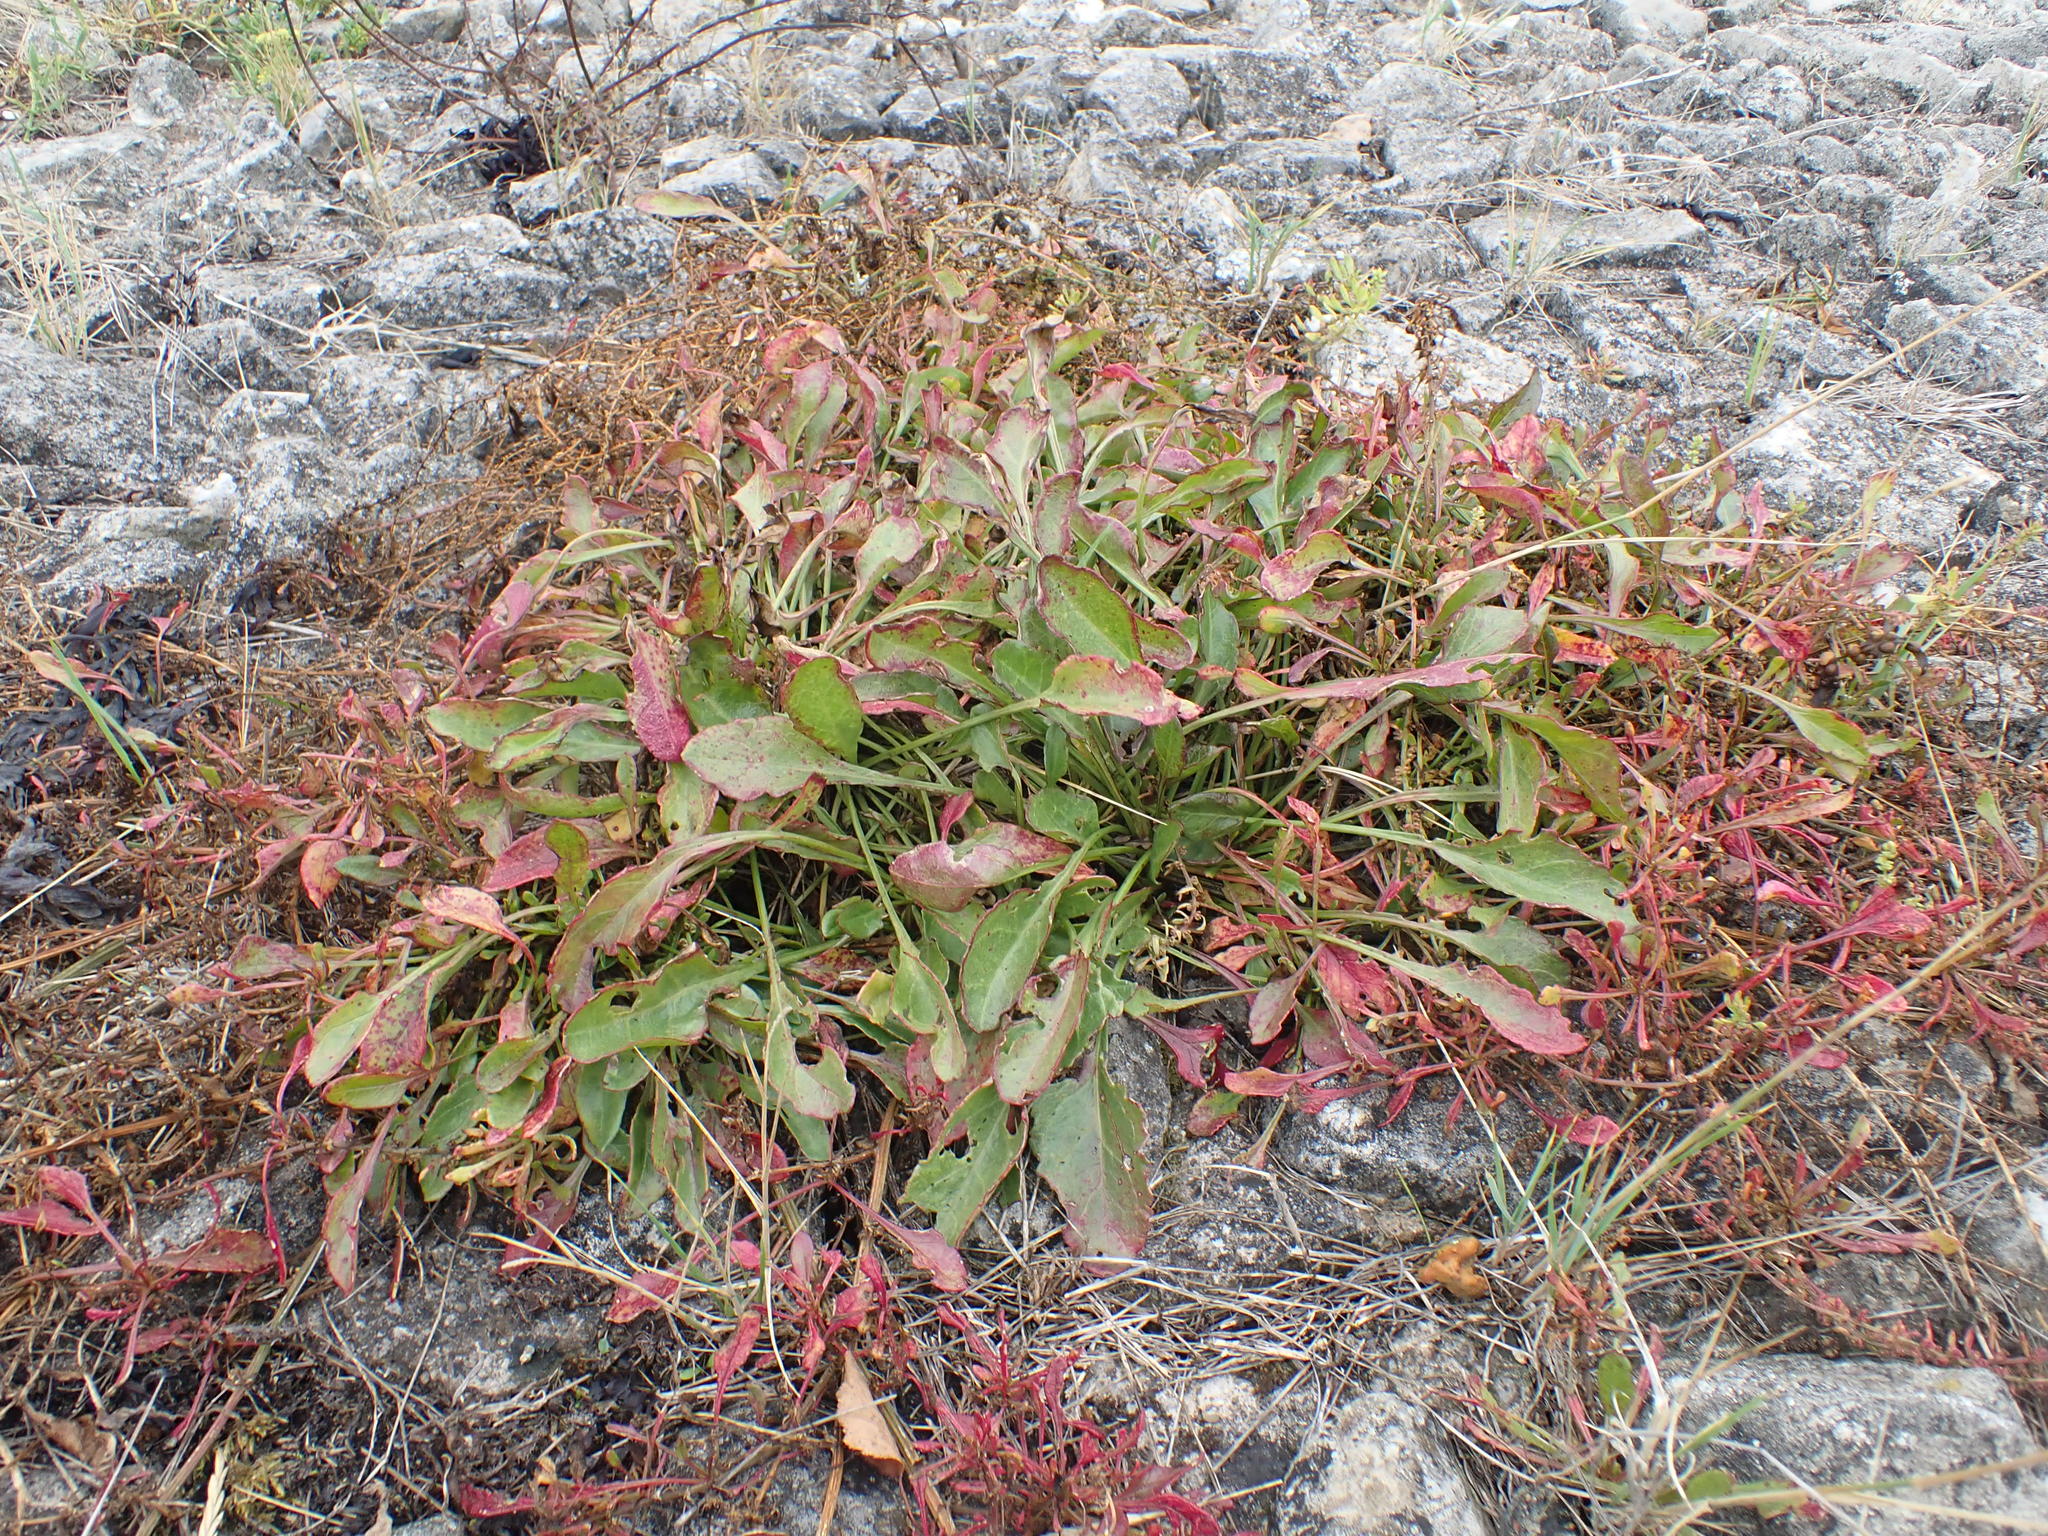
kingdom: Plantae
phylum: Tracheophyta
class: Magnoliopsida
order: Caryophyllales
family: Amaranthaceae
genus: Beta
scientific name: Beta vulgaris
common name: Beet
